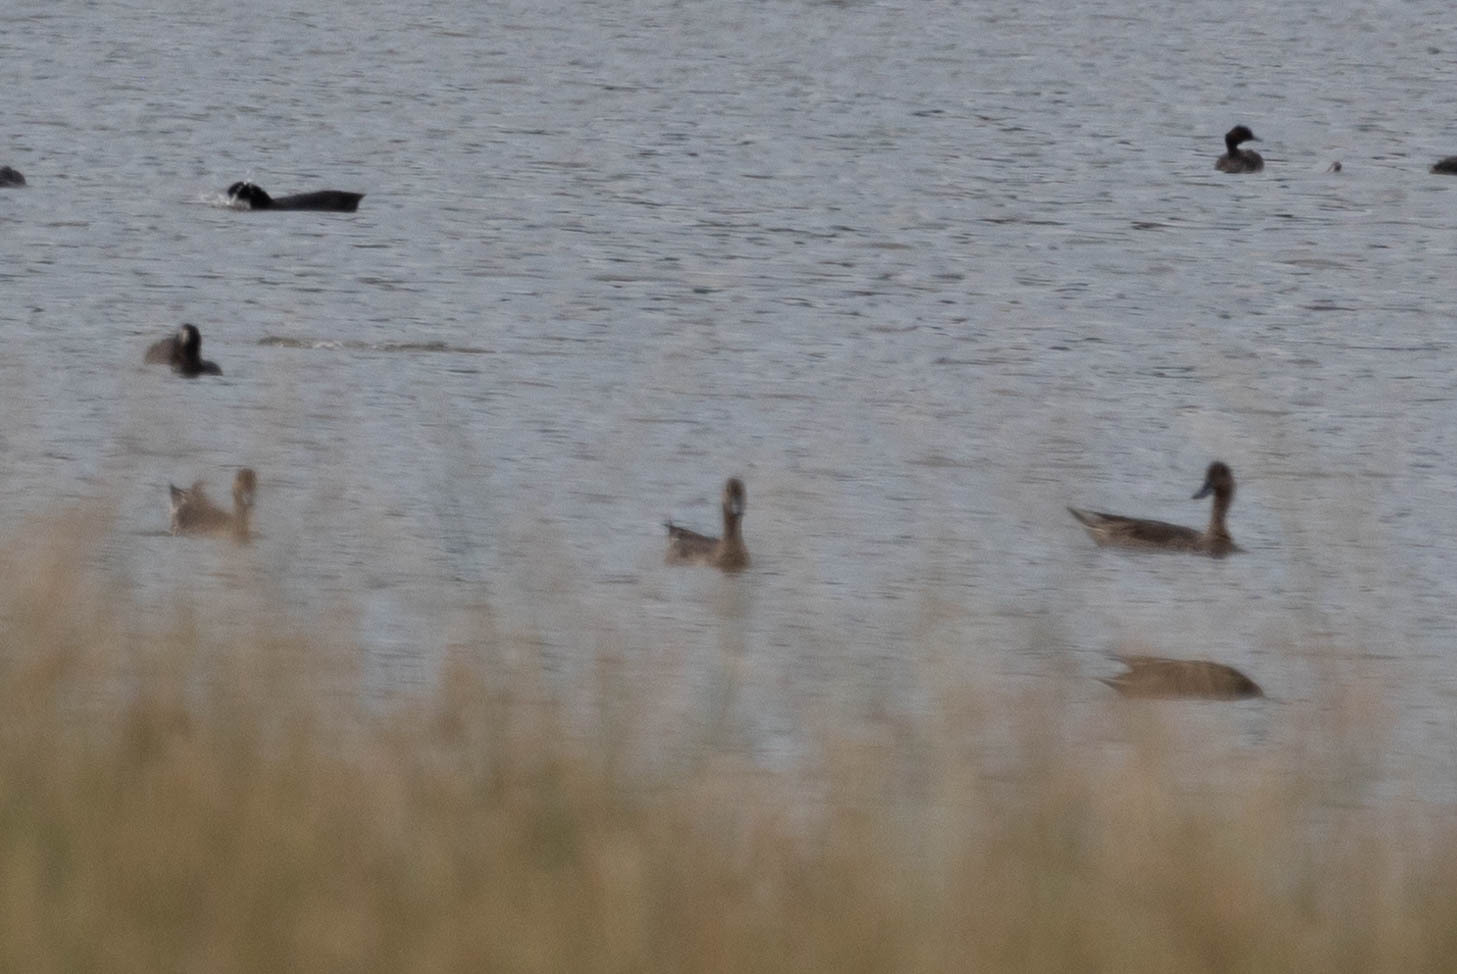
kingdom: Animalia
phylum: Chordata
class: Aves
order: Anseriformes
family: Anatidae
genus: Anas
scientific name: Anas acuta
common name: Northern pintail
